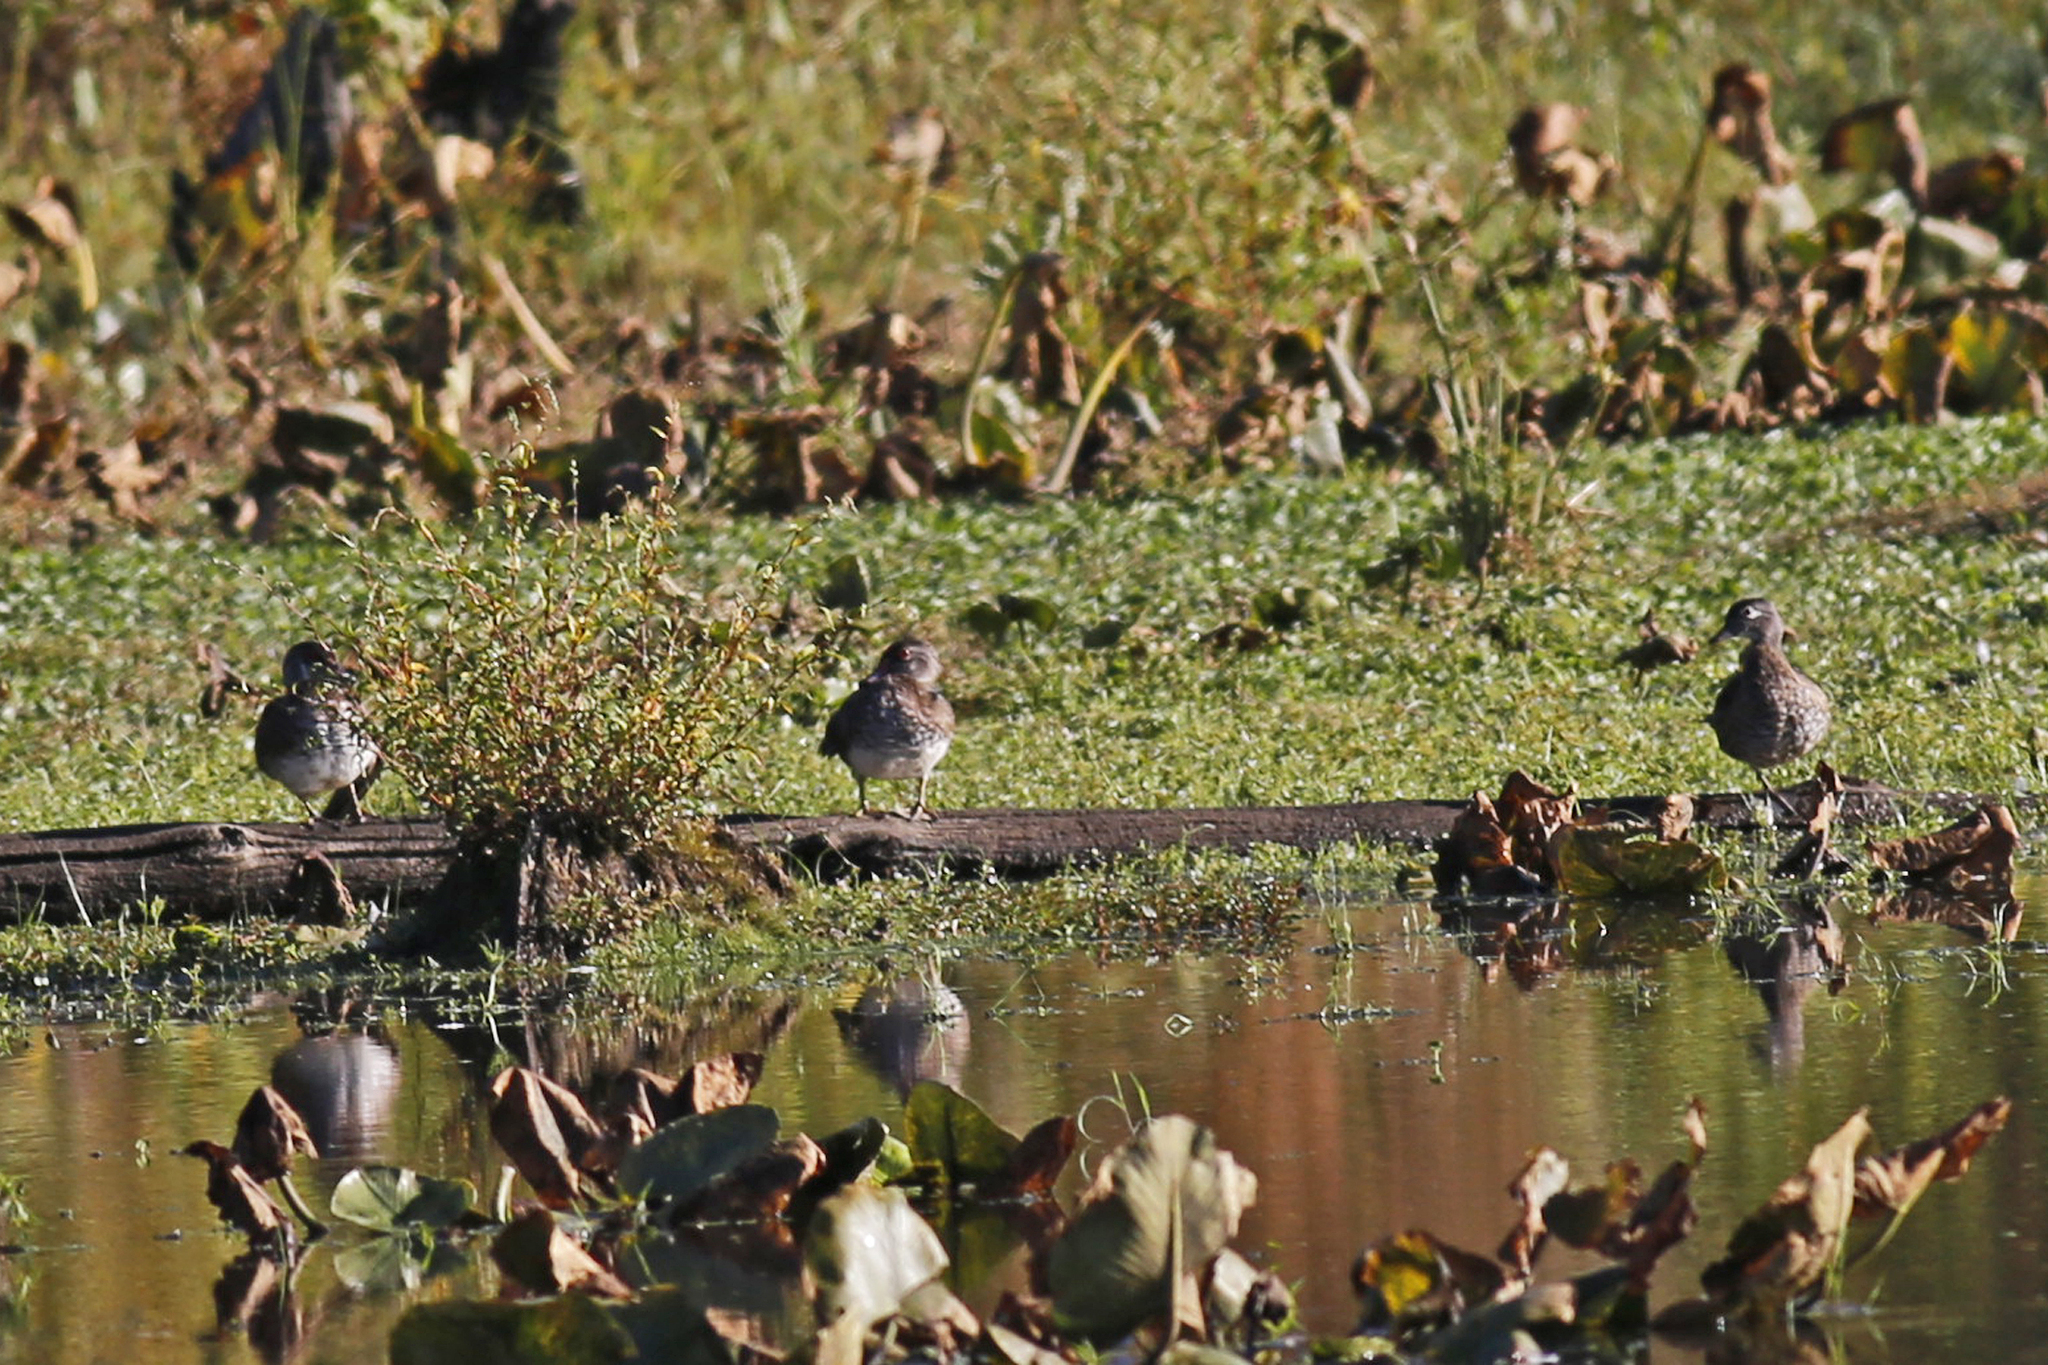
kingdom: Animalia
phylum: Chordata
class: Aves
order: Anseriformes
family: Anatidae
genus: Aix
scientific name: Aix sponsa
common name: Wood duck
